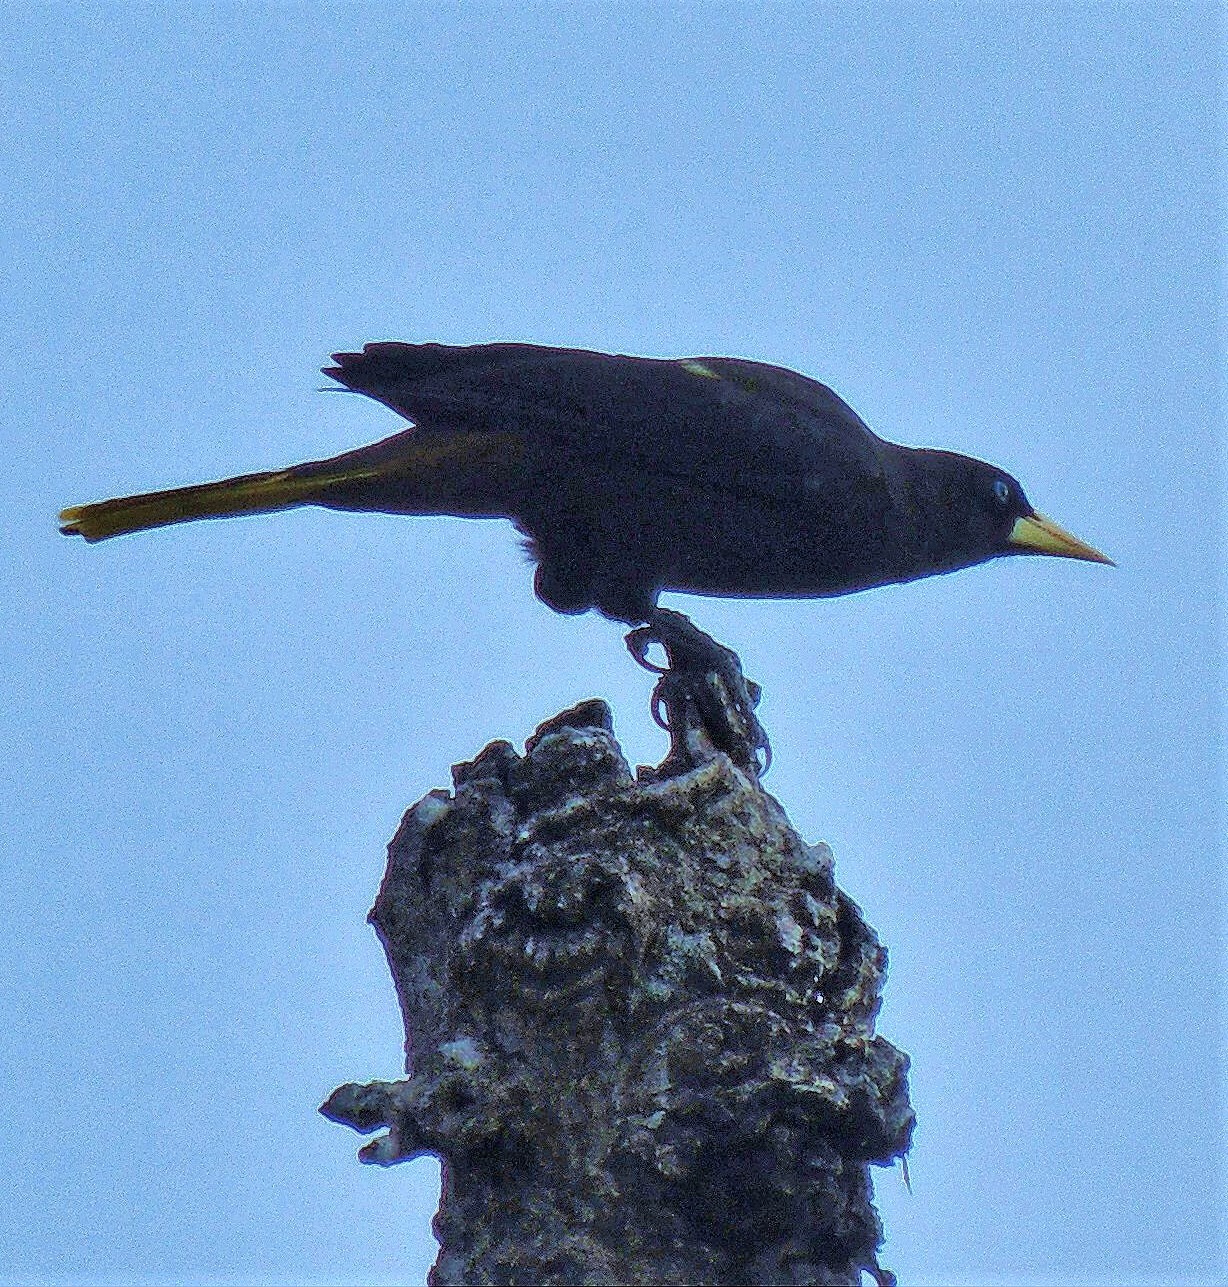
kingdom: Animalia
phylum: Chordata
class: Aves
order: Passeriformes
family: Icteridae
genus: Psarocolius
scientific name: Psarocolius decumanus
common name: Crested oropendola
